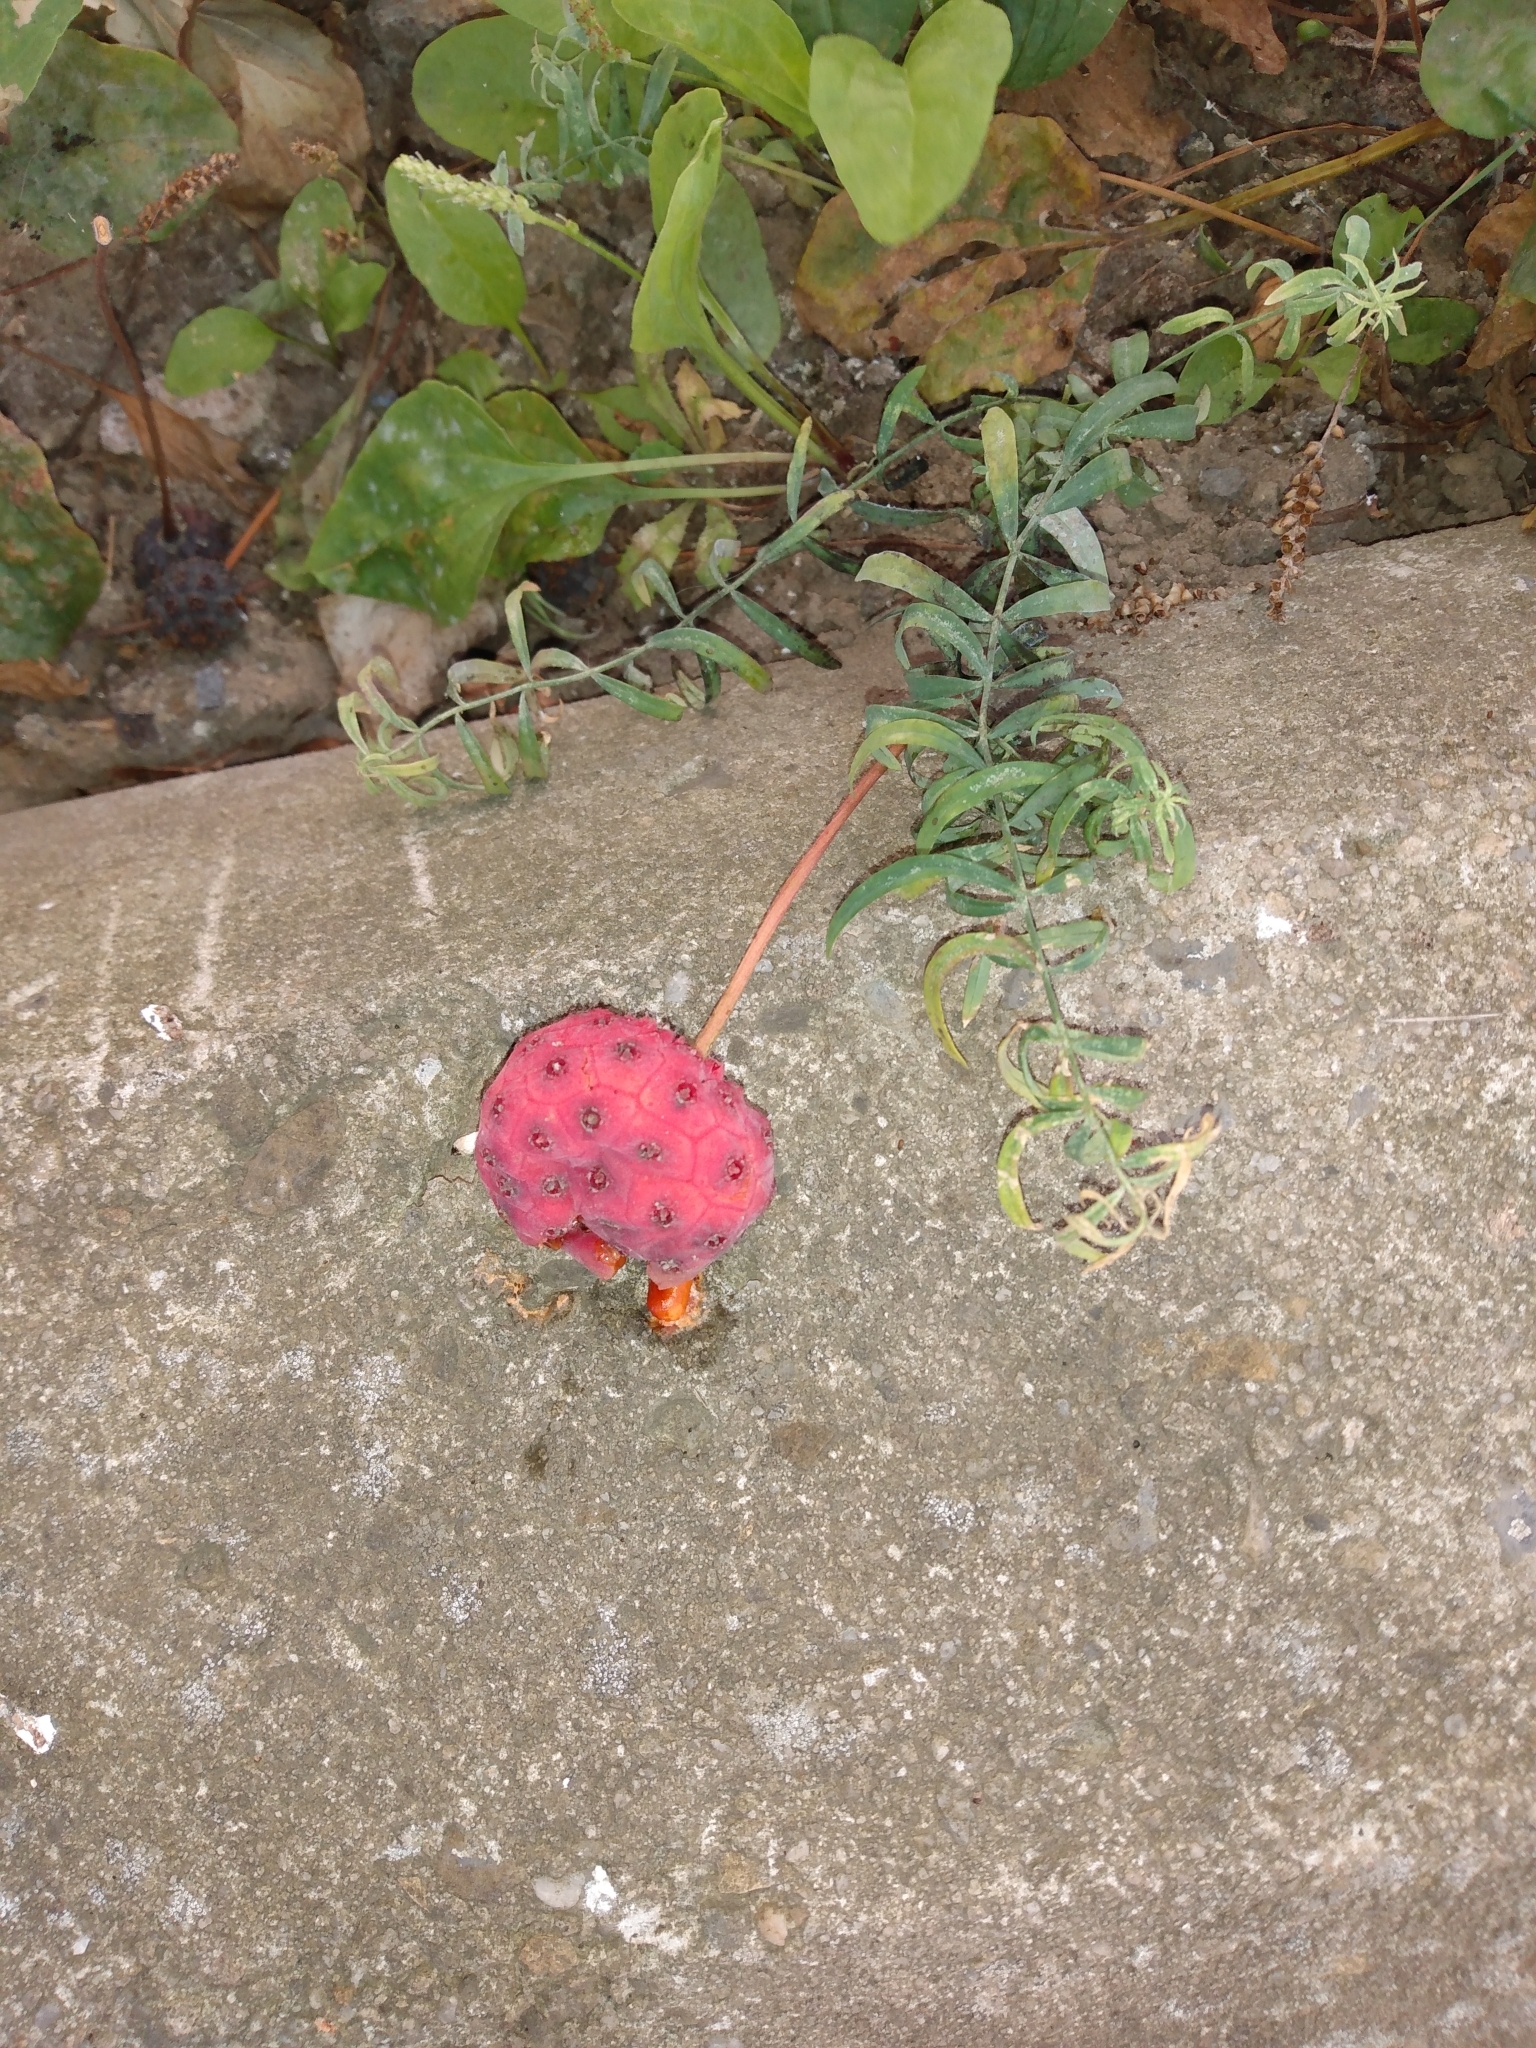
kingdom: Plantae
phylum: Tracheophyta
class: Magnoliopsida
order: Cornales
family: Cornaceae
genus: Cornus
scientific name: Cornus kousa
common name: Japanese dogwood
